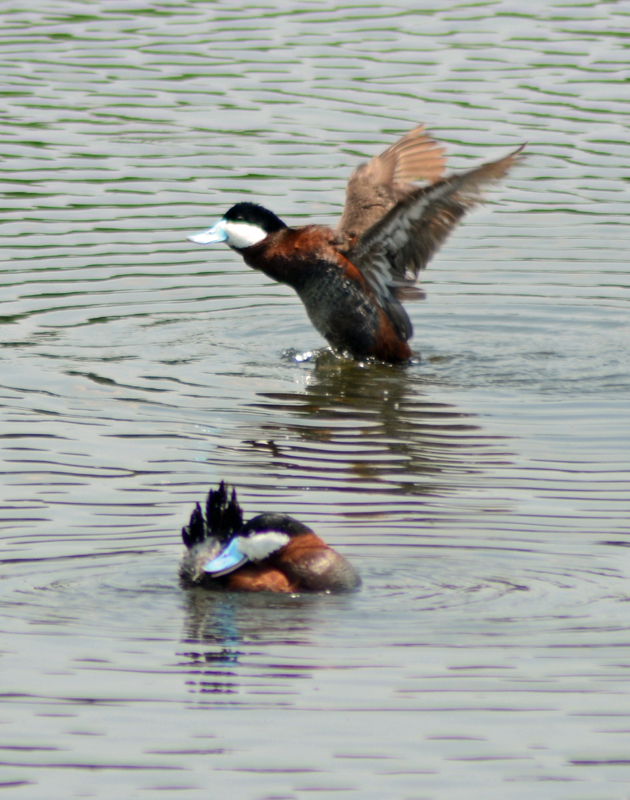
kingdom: Animalia
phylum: Chordata
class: Aves
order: Anseriformes
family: Anatidae
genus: Oxyura
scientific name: Oxyura jamaicensis
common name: Ruddy duck
